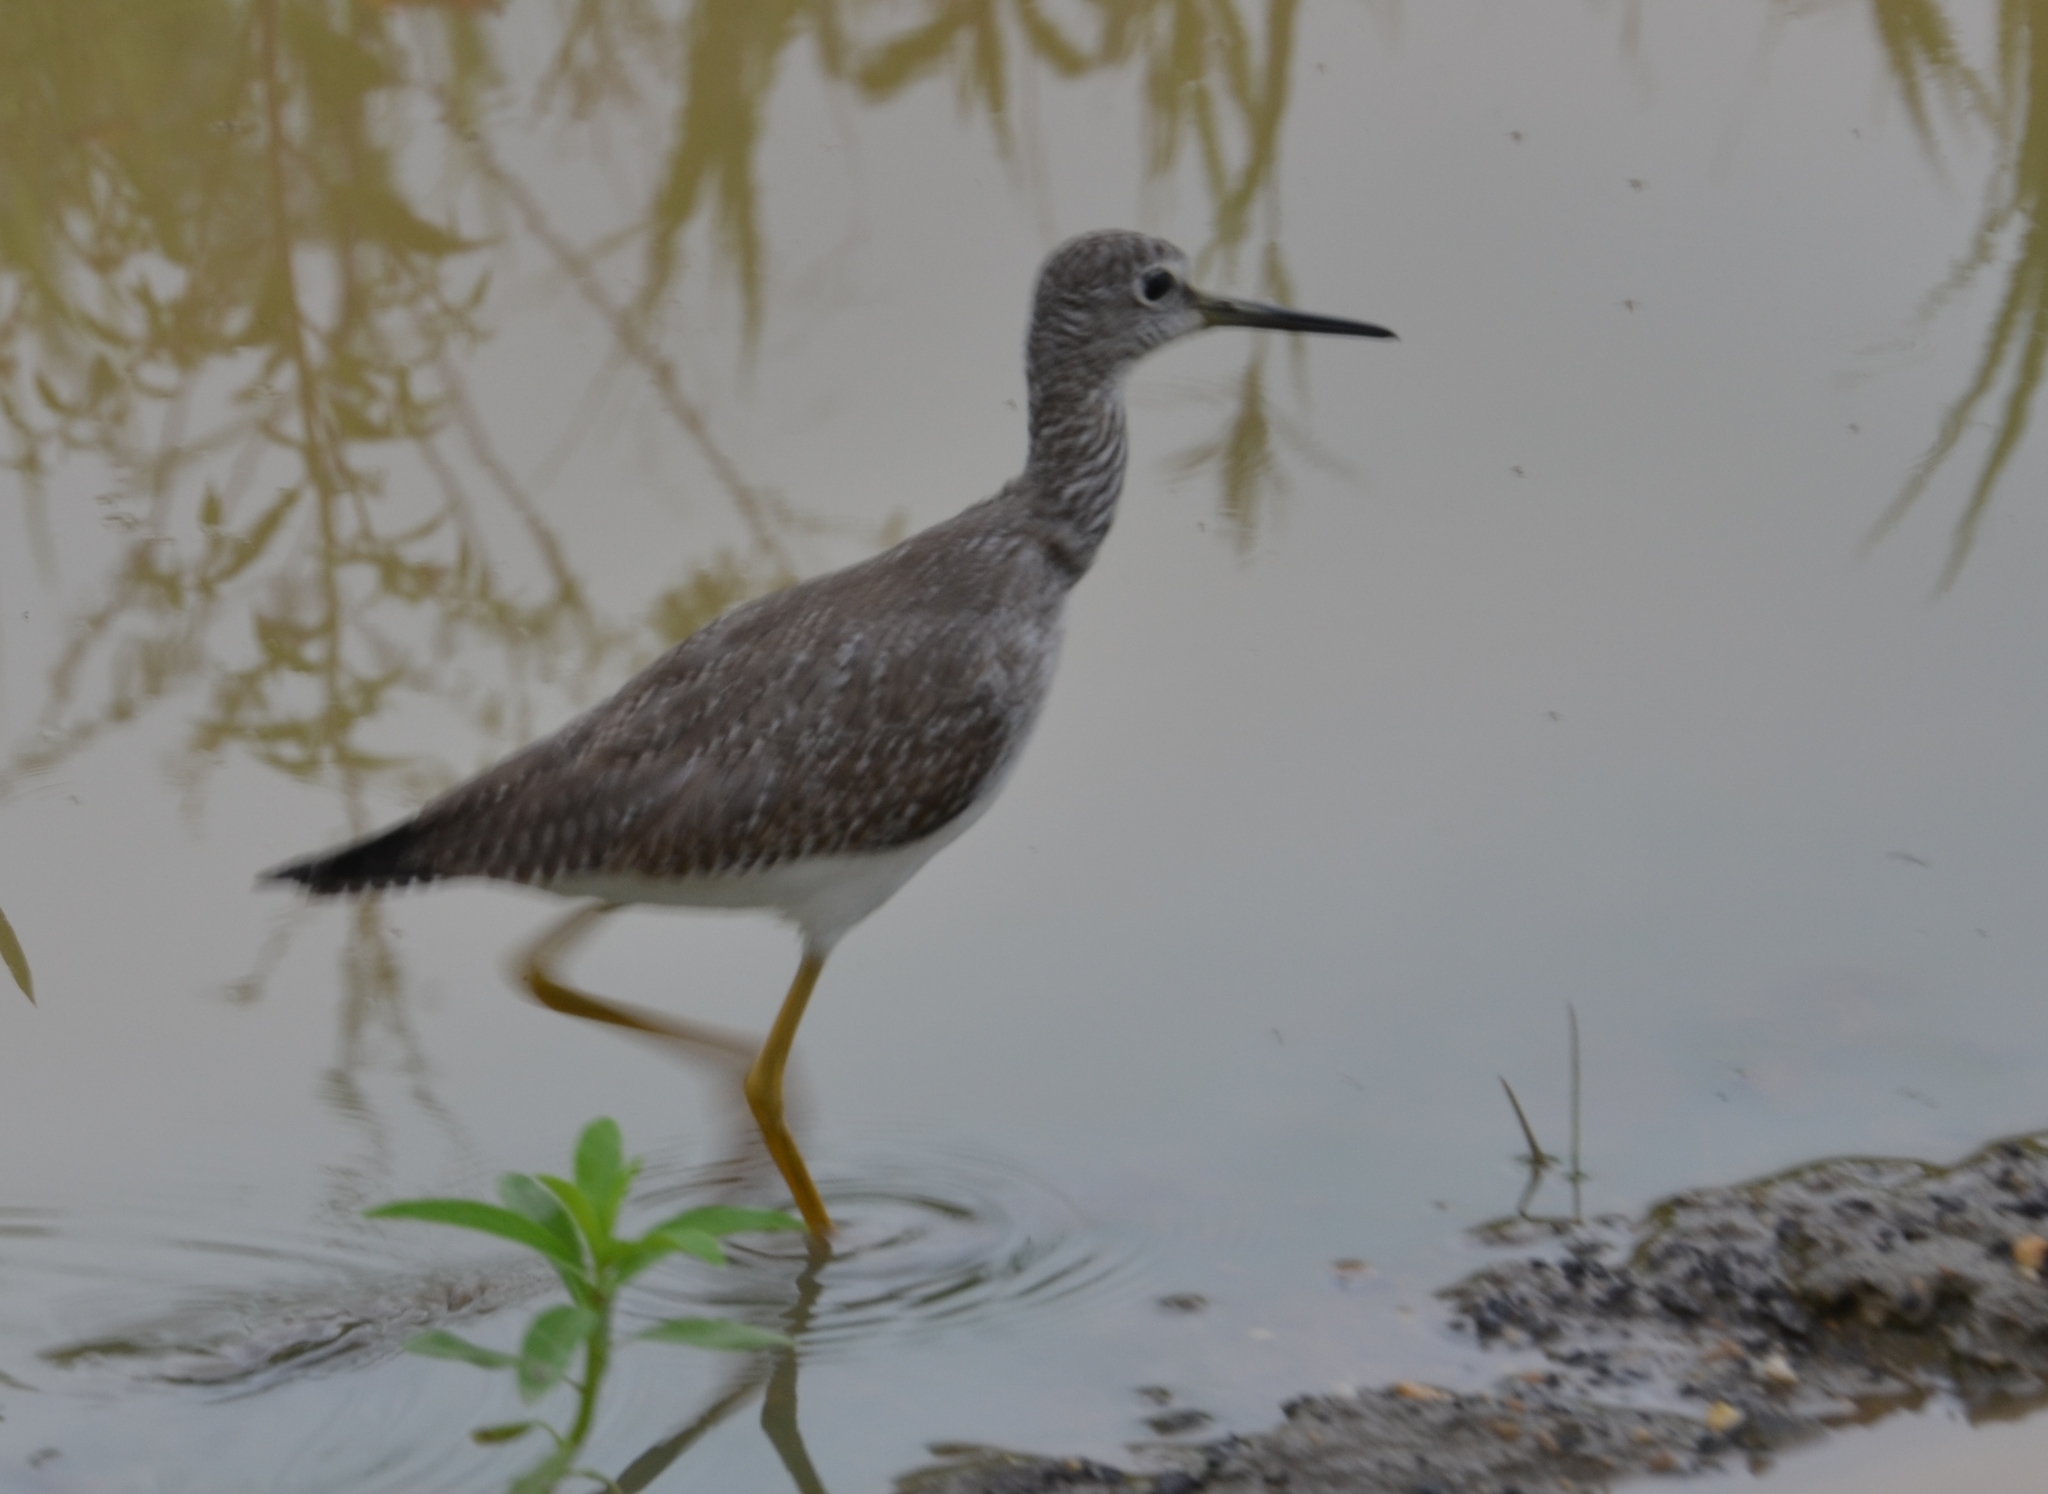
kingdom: Animalia
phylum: Chordata
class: Aves
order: Charadriiformes
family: Scolopacidae
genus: Tringa
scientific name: Tringa flavipes
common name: Lesser yellowlegs
